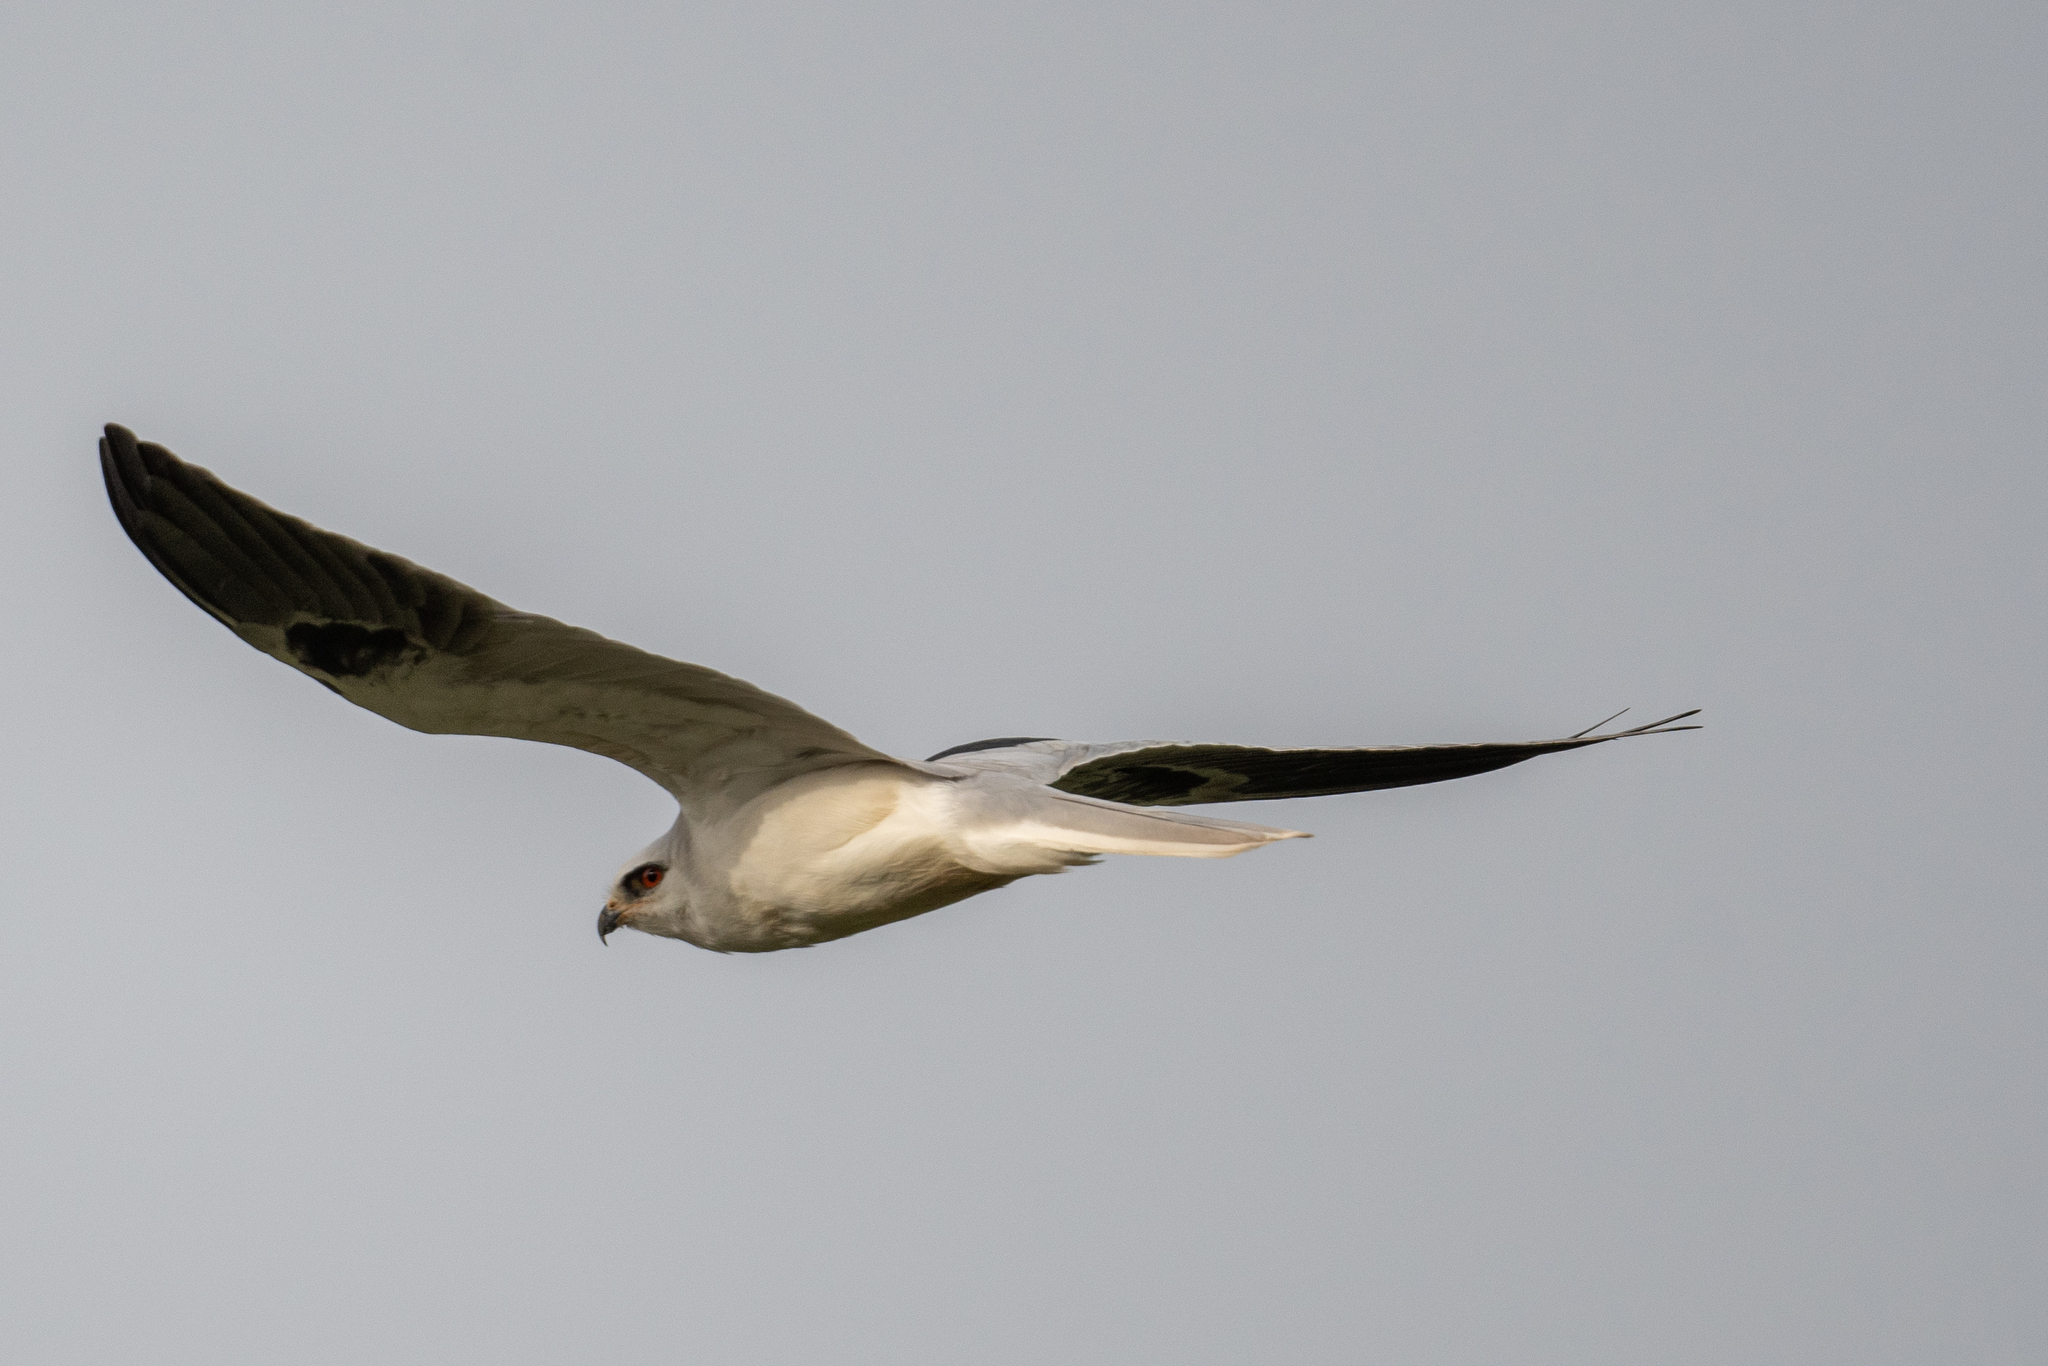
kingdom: Animalia
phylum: Chordata
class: Aves
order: Accipitriformes
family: Accipitridae
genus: Elanus
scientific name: Elanus leucurus
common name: White-tailed kite
